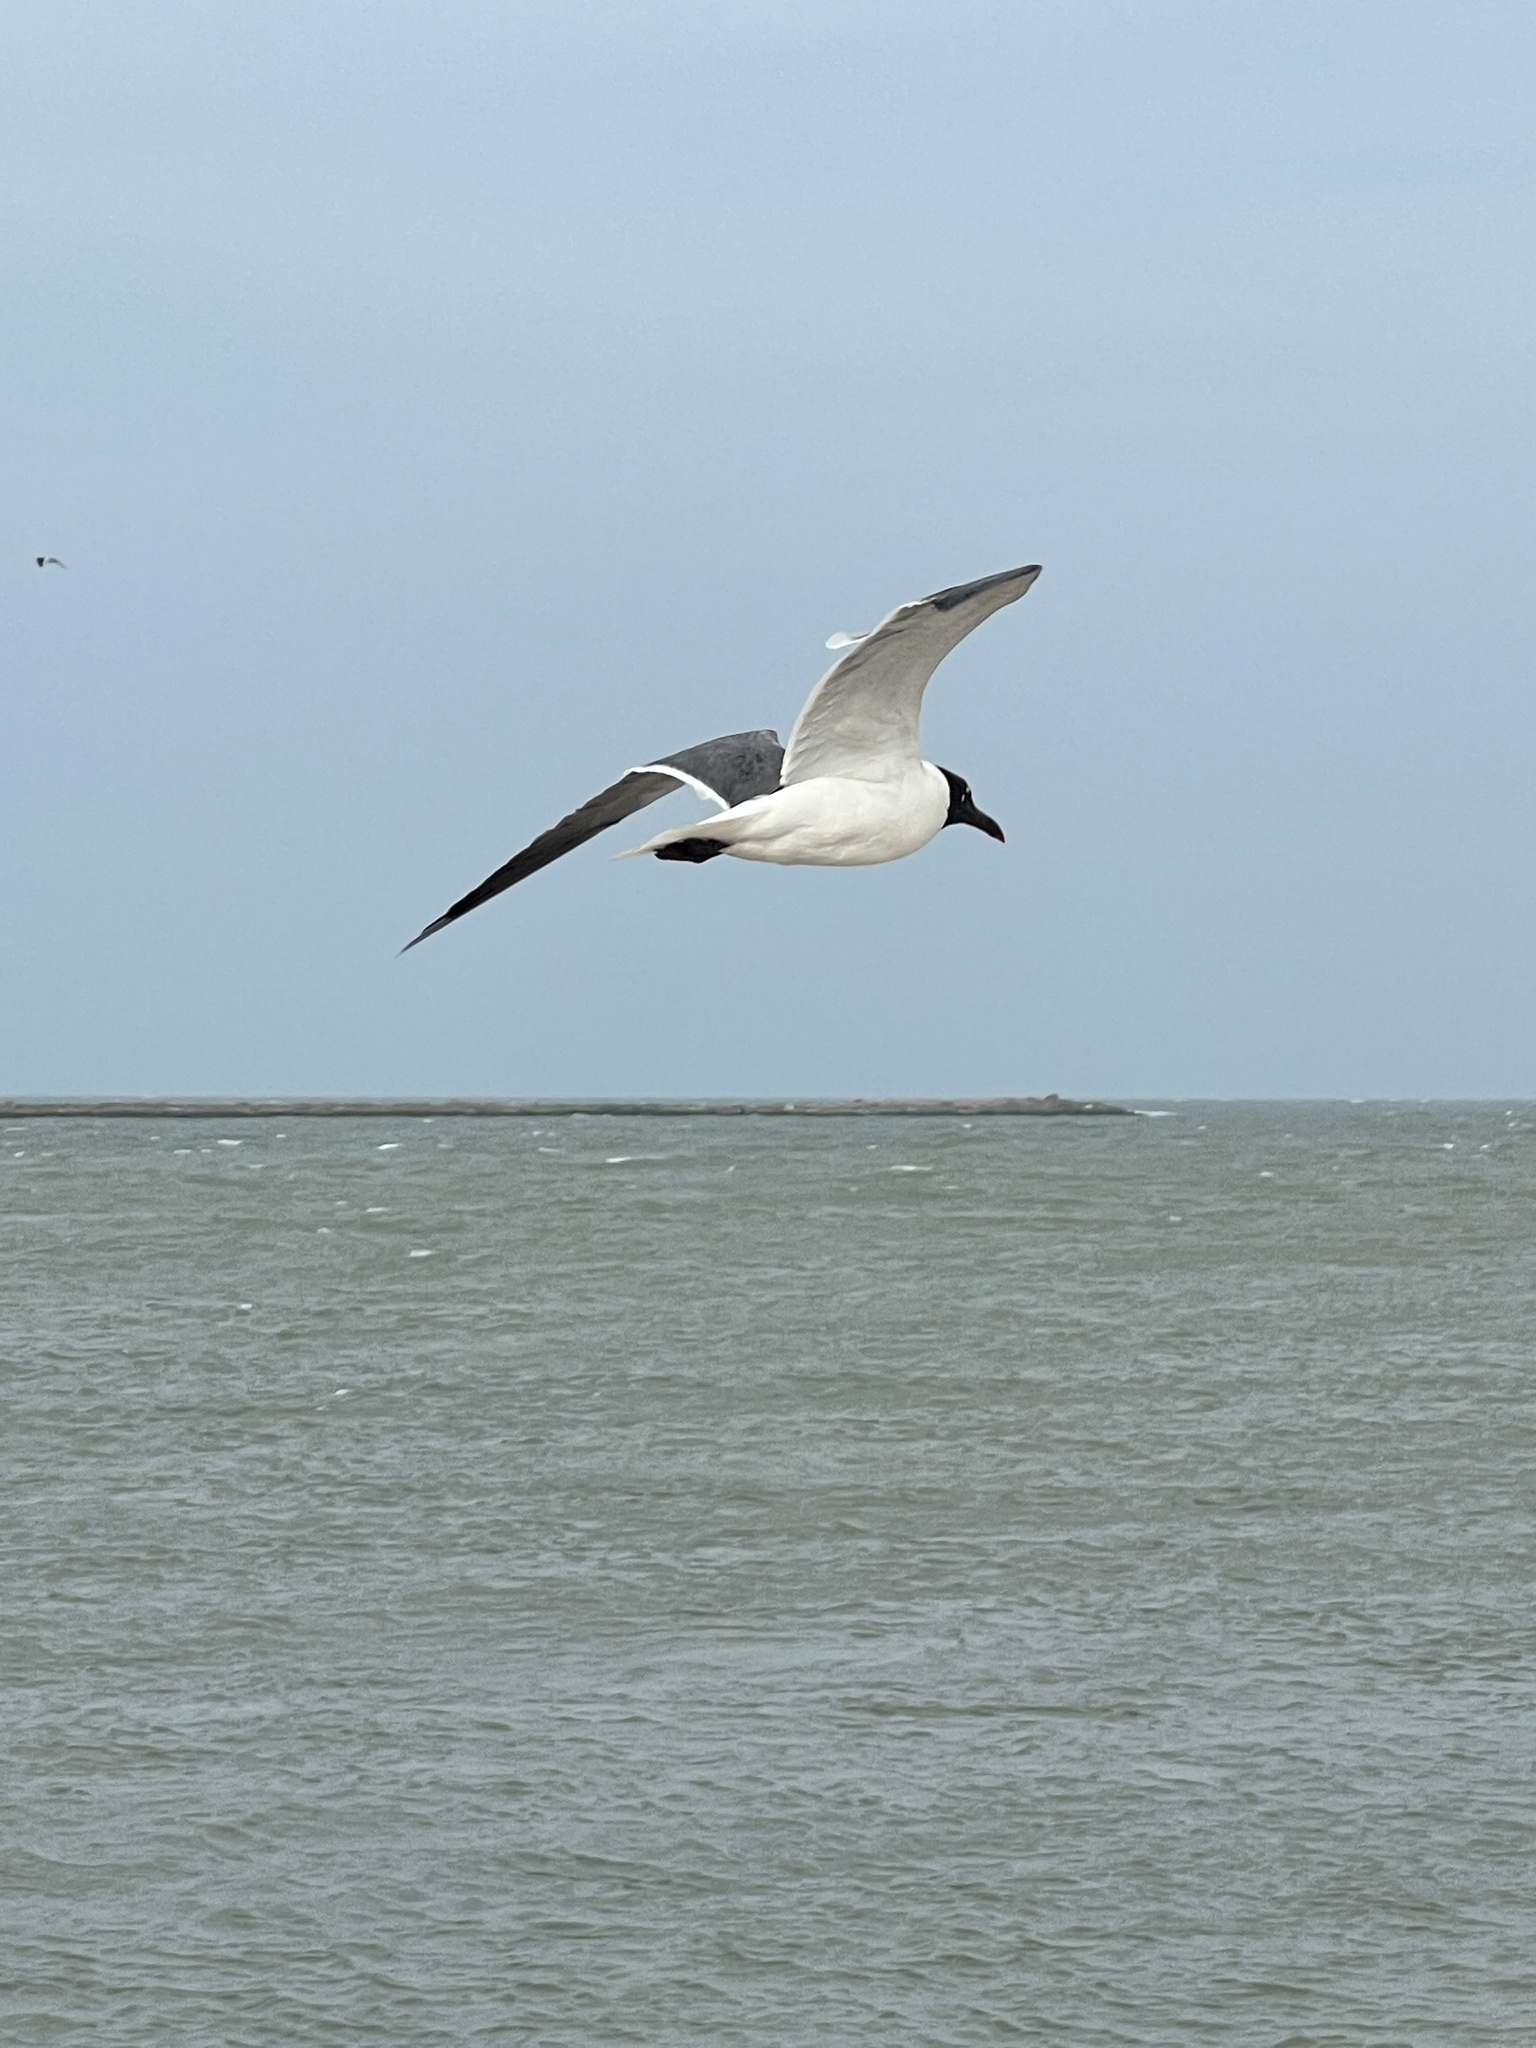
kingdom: Animalia
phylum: Chordata
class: Aves
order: Charadriiformes
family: Laridae
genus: Leucophaeus
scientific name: Leucophaeus atricilla
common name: Laughing gull
